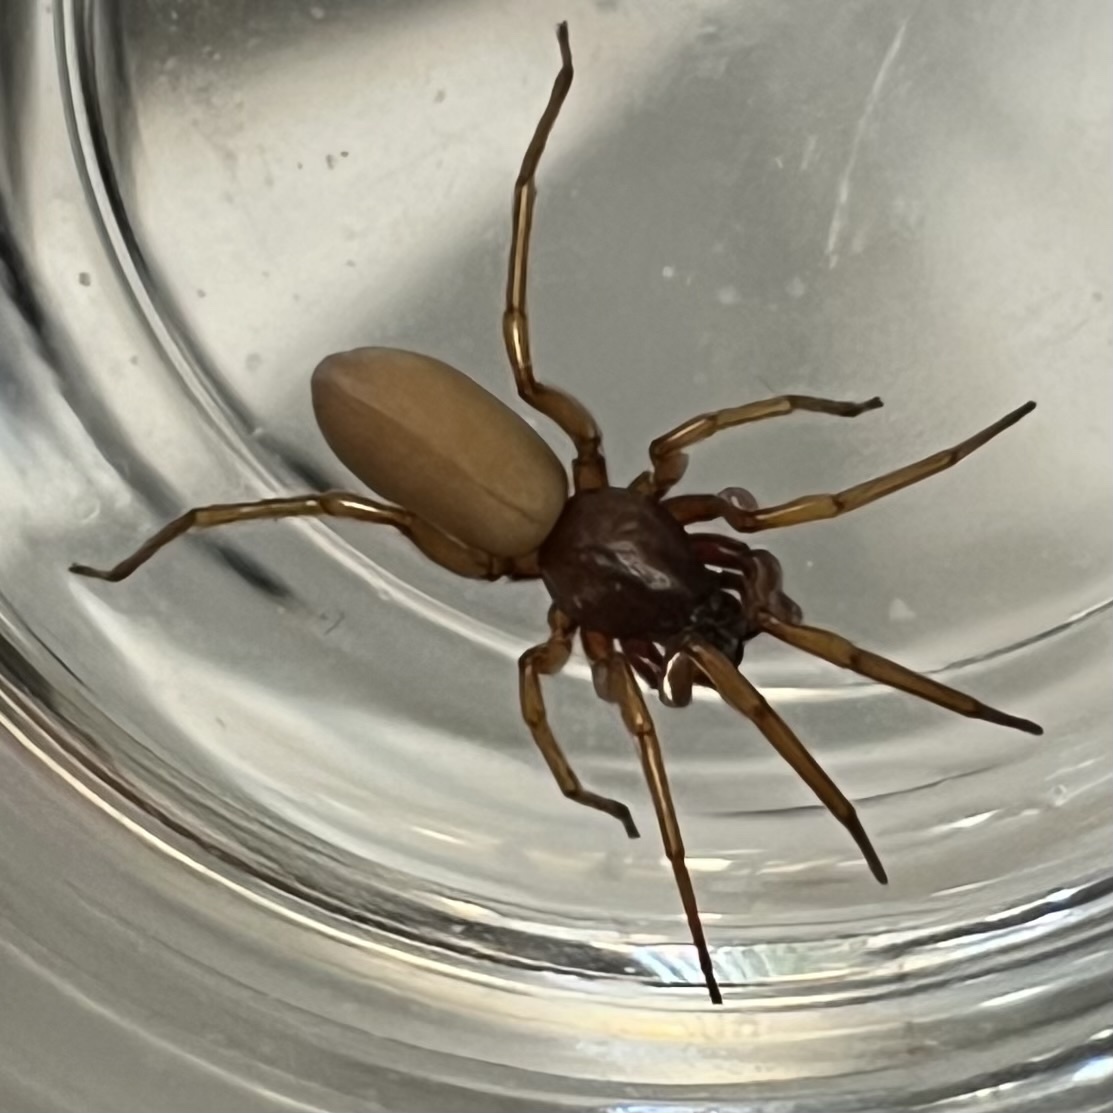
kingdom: Animalia
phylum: Arthropoda
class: Arachnida
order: Araneae
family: Dysderidae
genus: Harpactea
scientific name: Harpactea rubicunda
